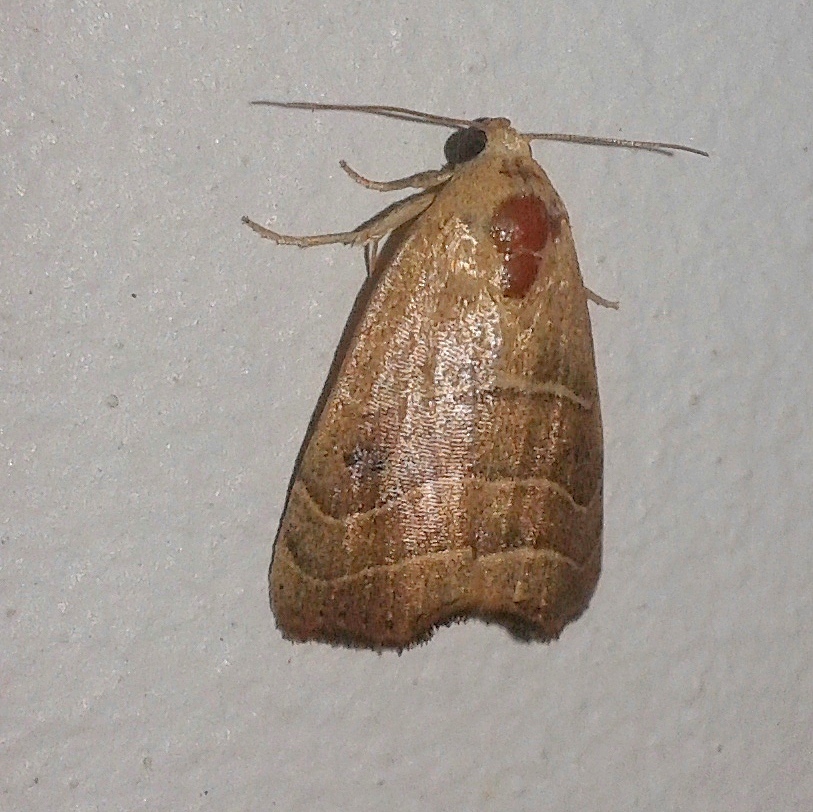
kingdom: Animalia
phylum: Arthropoda
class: Insecta
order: Lepidoptera
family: Noctuidae
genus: Bagisara
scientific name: Bagisara repanda
